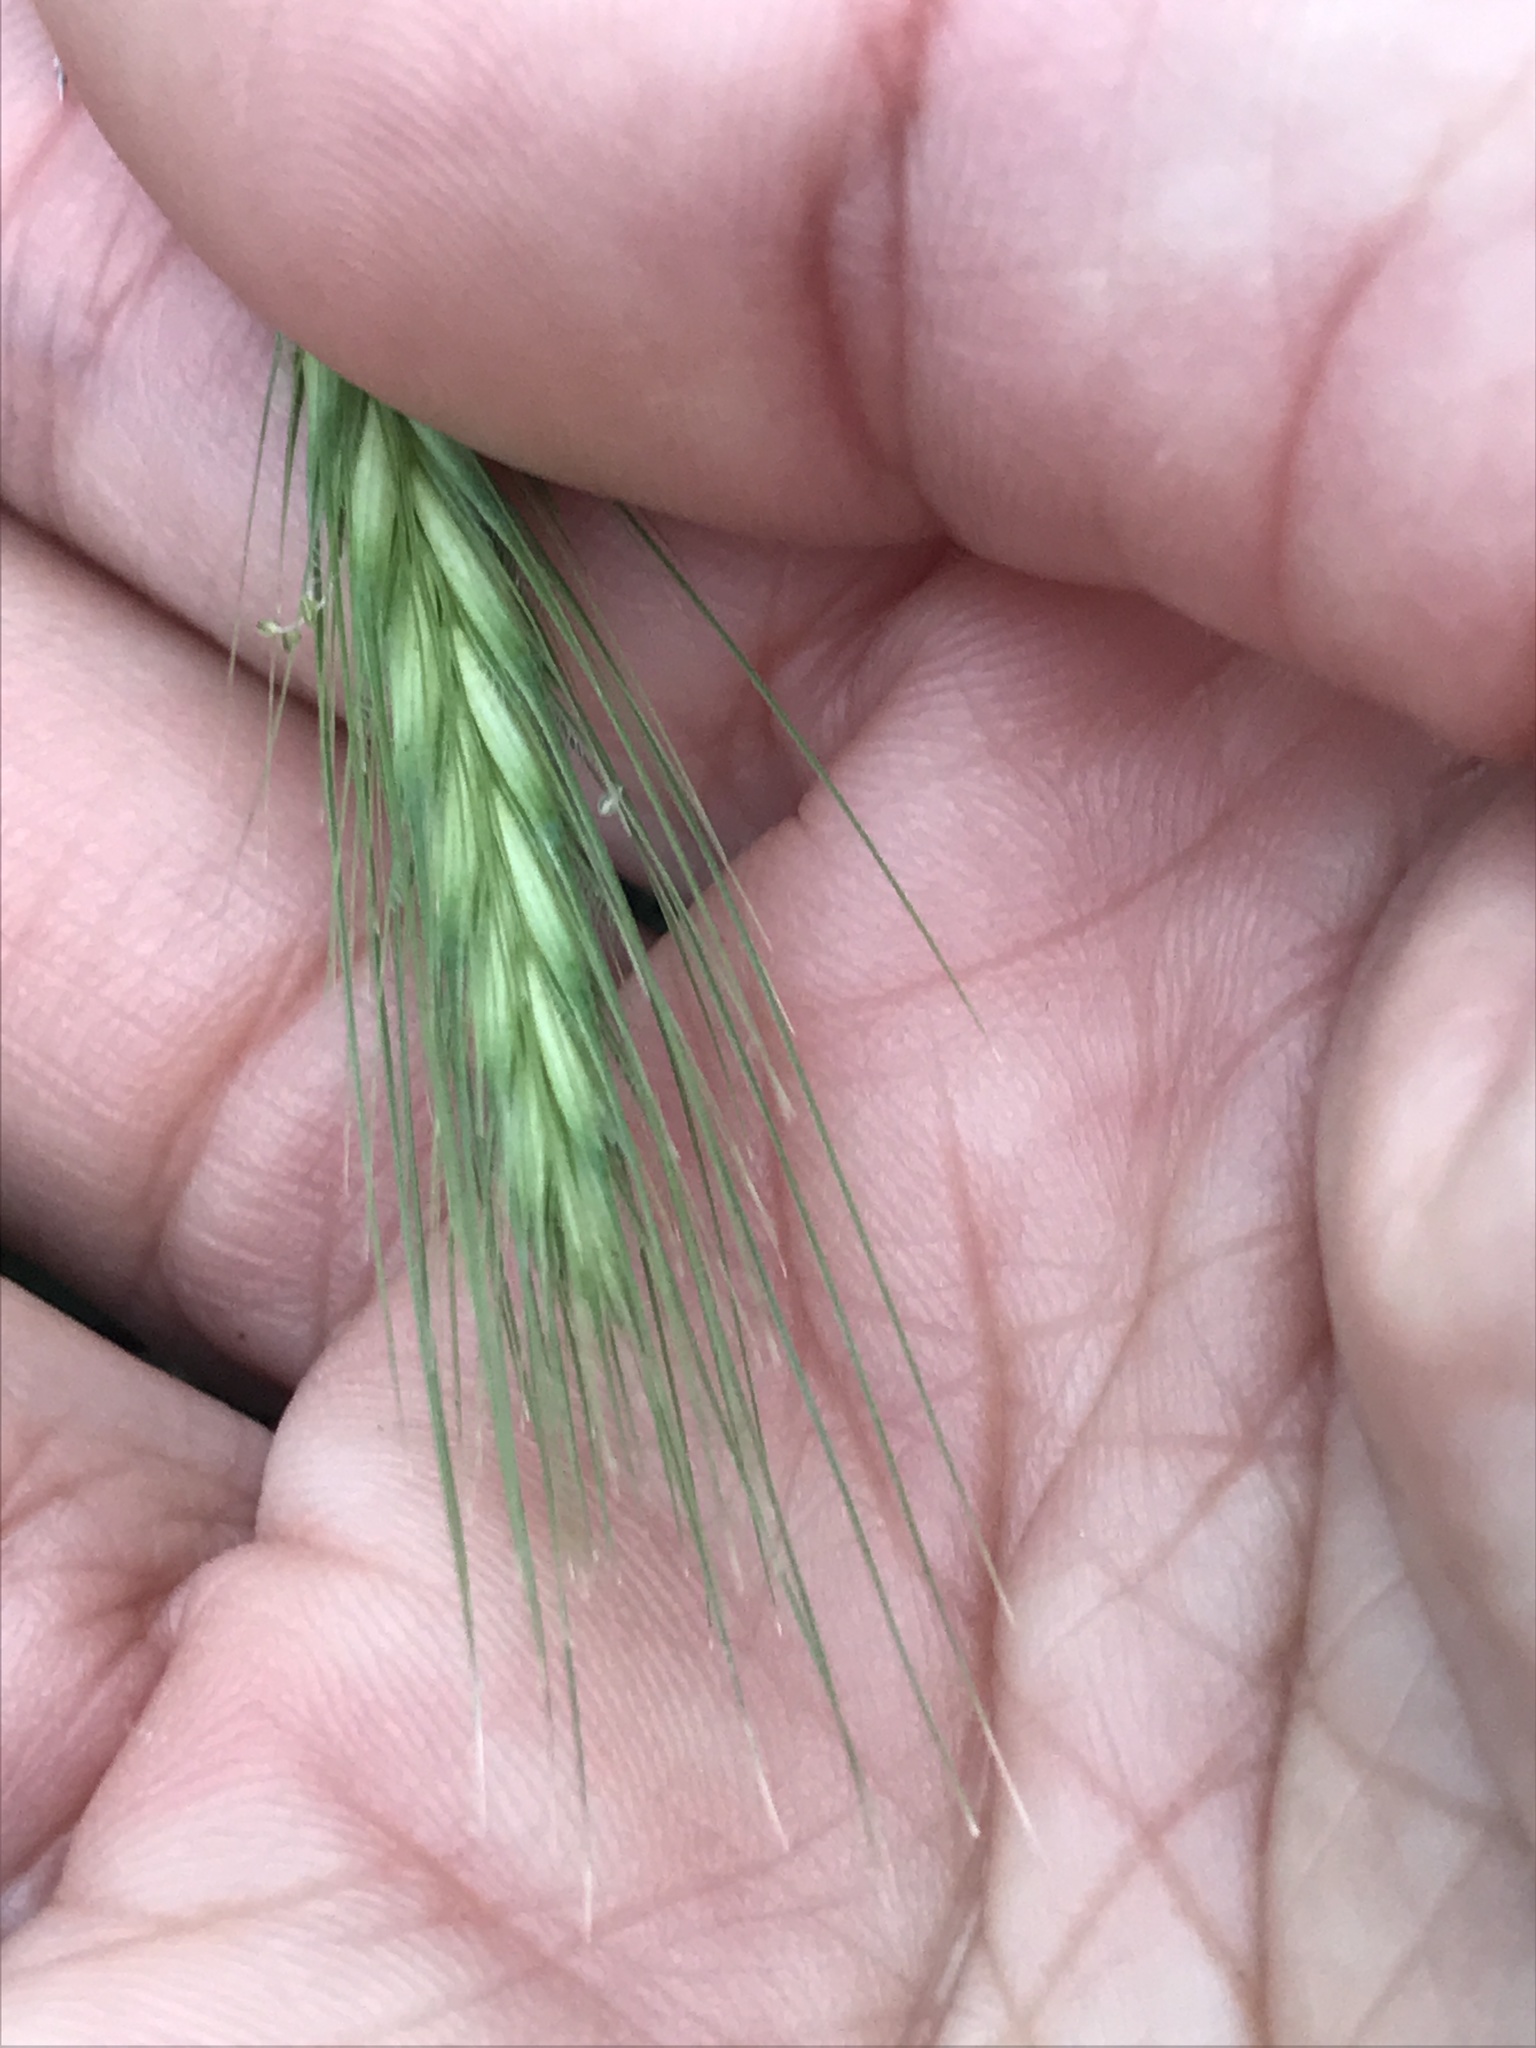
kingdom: Plantae
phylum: Tracheophyta
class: Liliopsida
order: Poales
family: Poaceae
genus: Hordeum
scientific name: Hordeum murinum
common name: Wall barley
